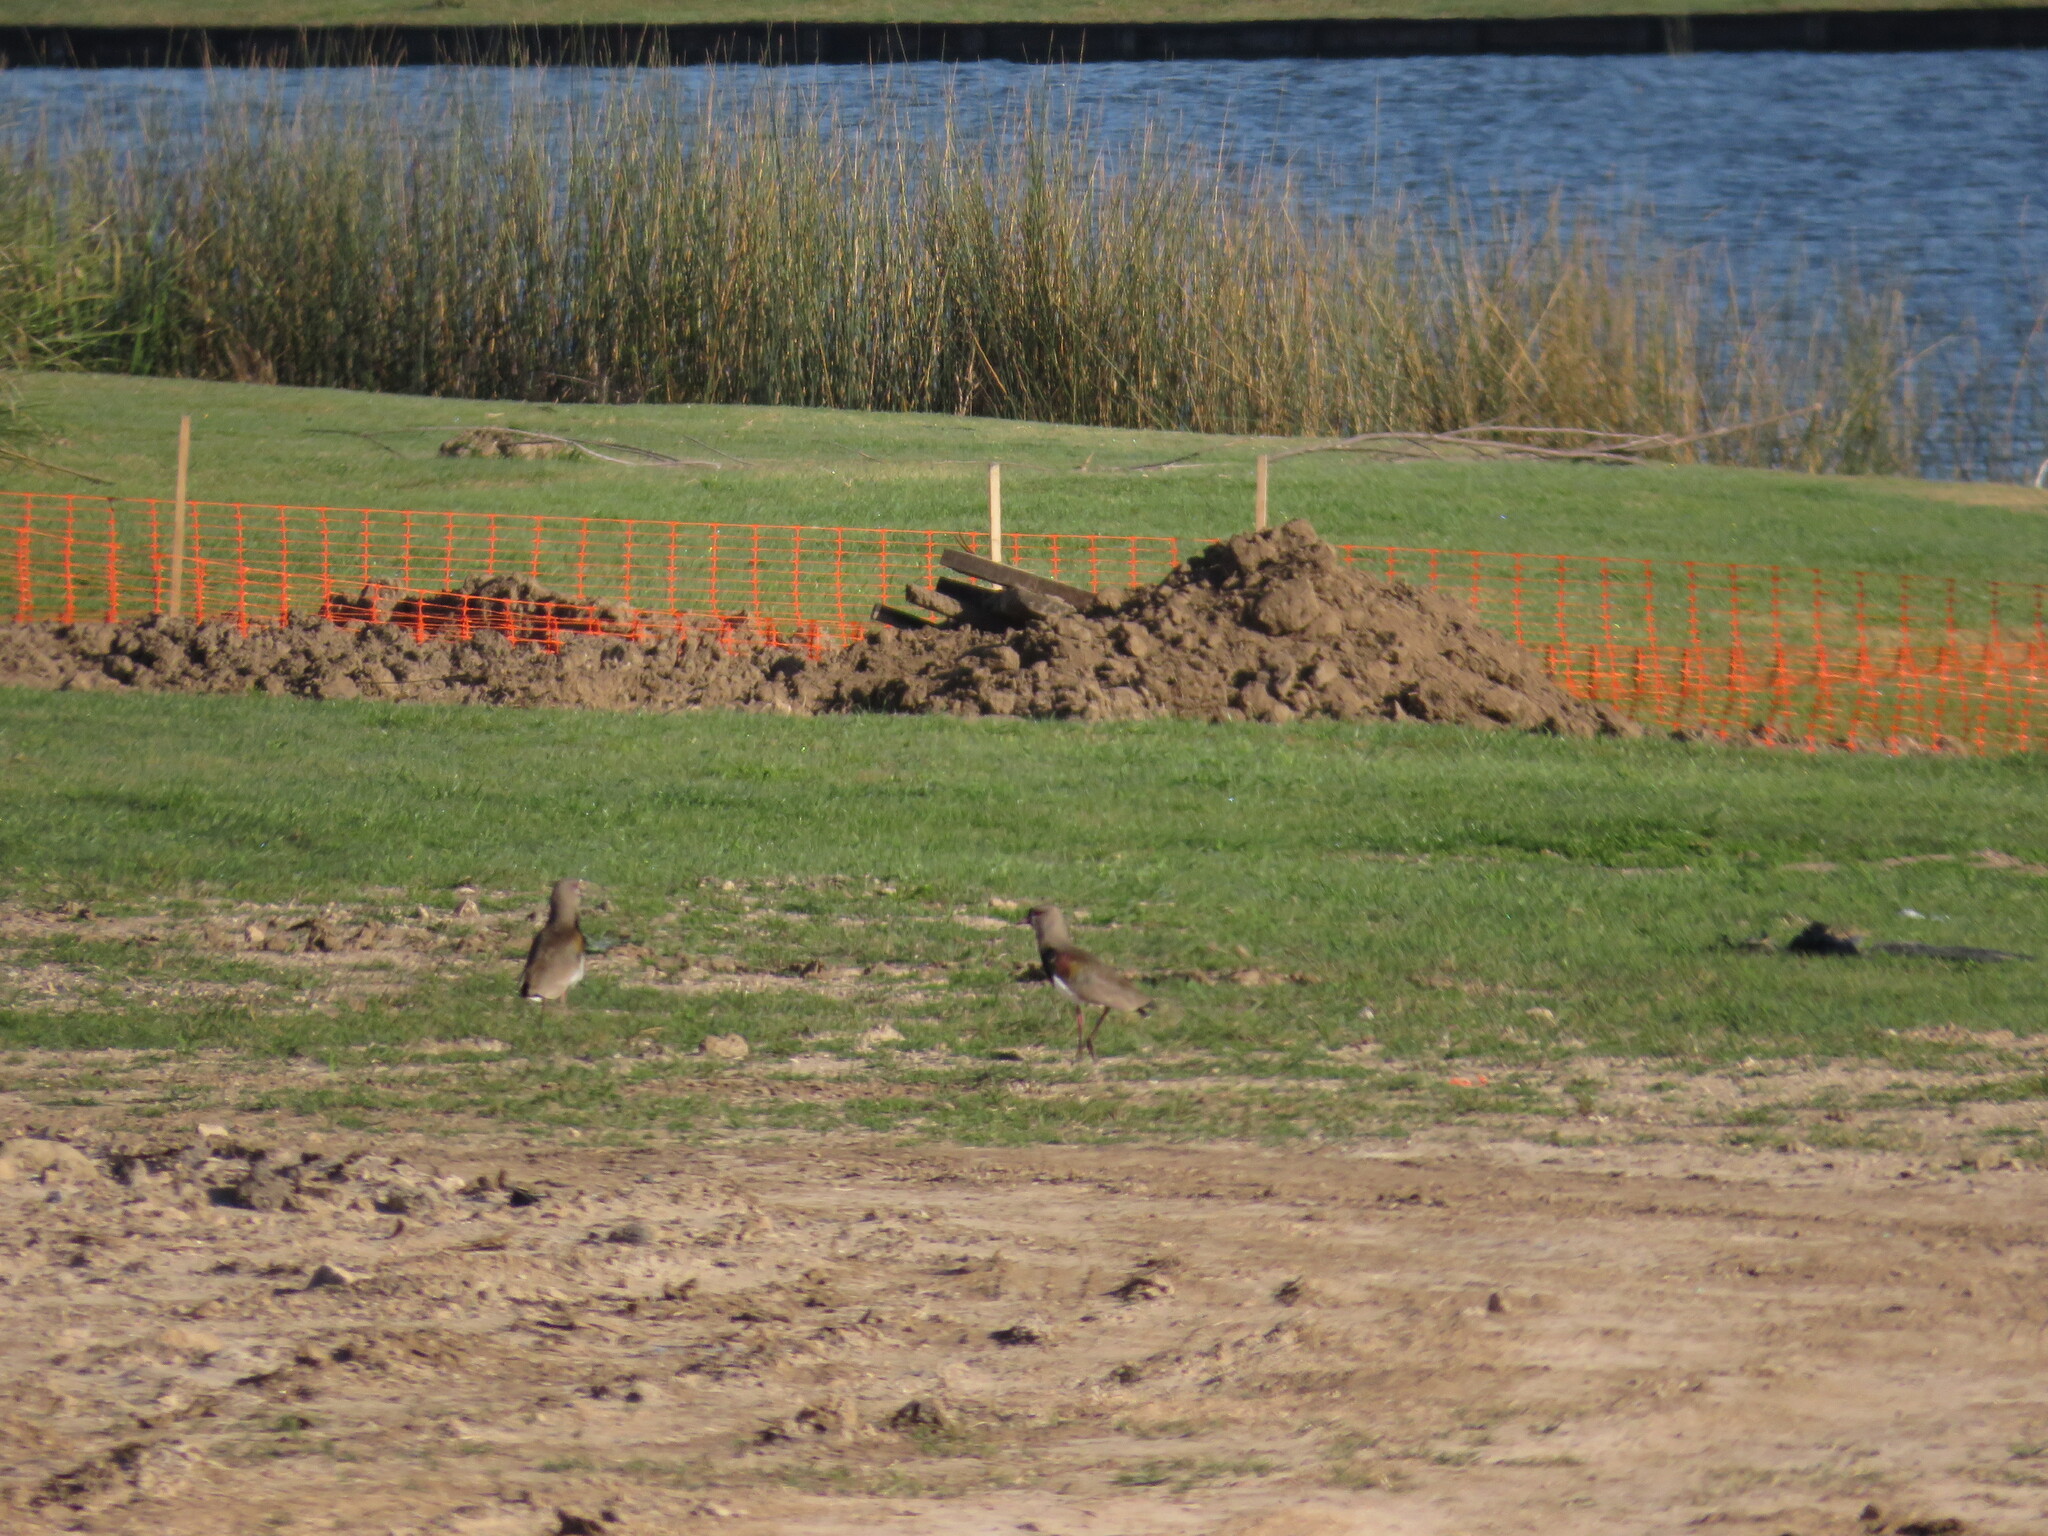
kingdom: Animalia
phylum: Chordata
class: Aves
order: Charadriiformes
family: Charadriidae
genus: Vanellus
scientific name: Vanellus chilensis
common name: Southern lapwing
